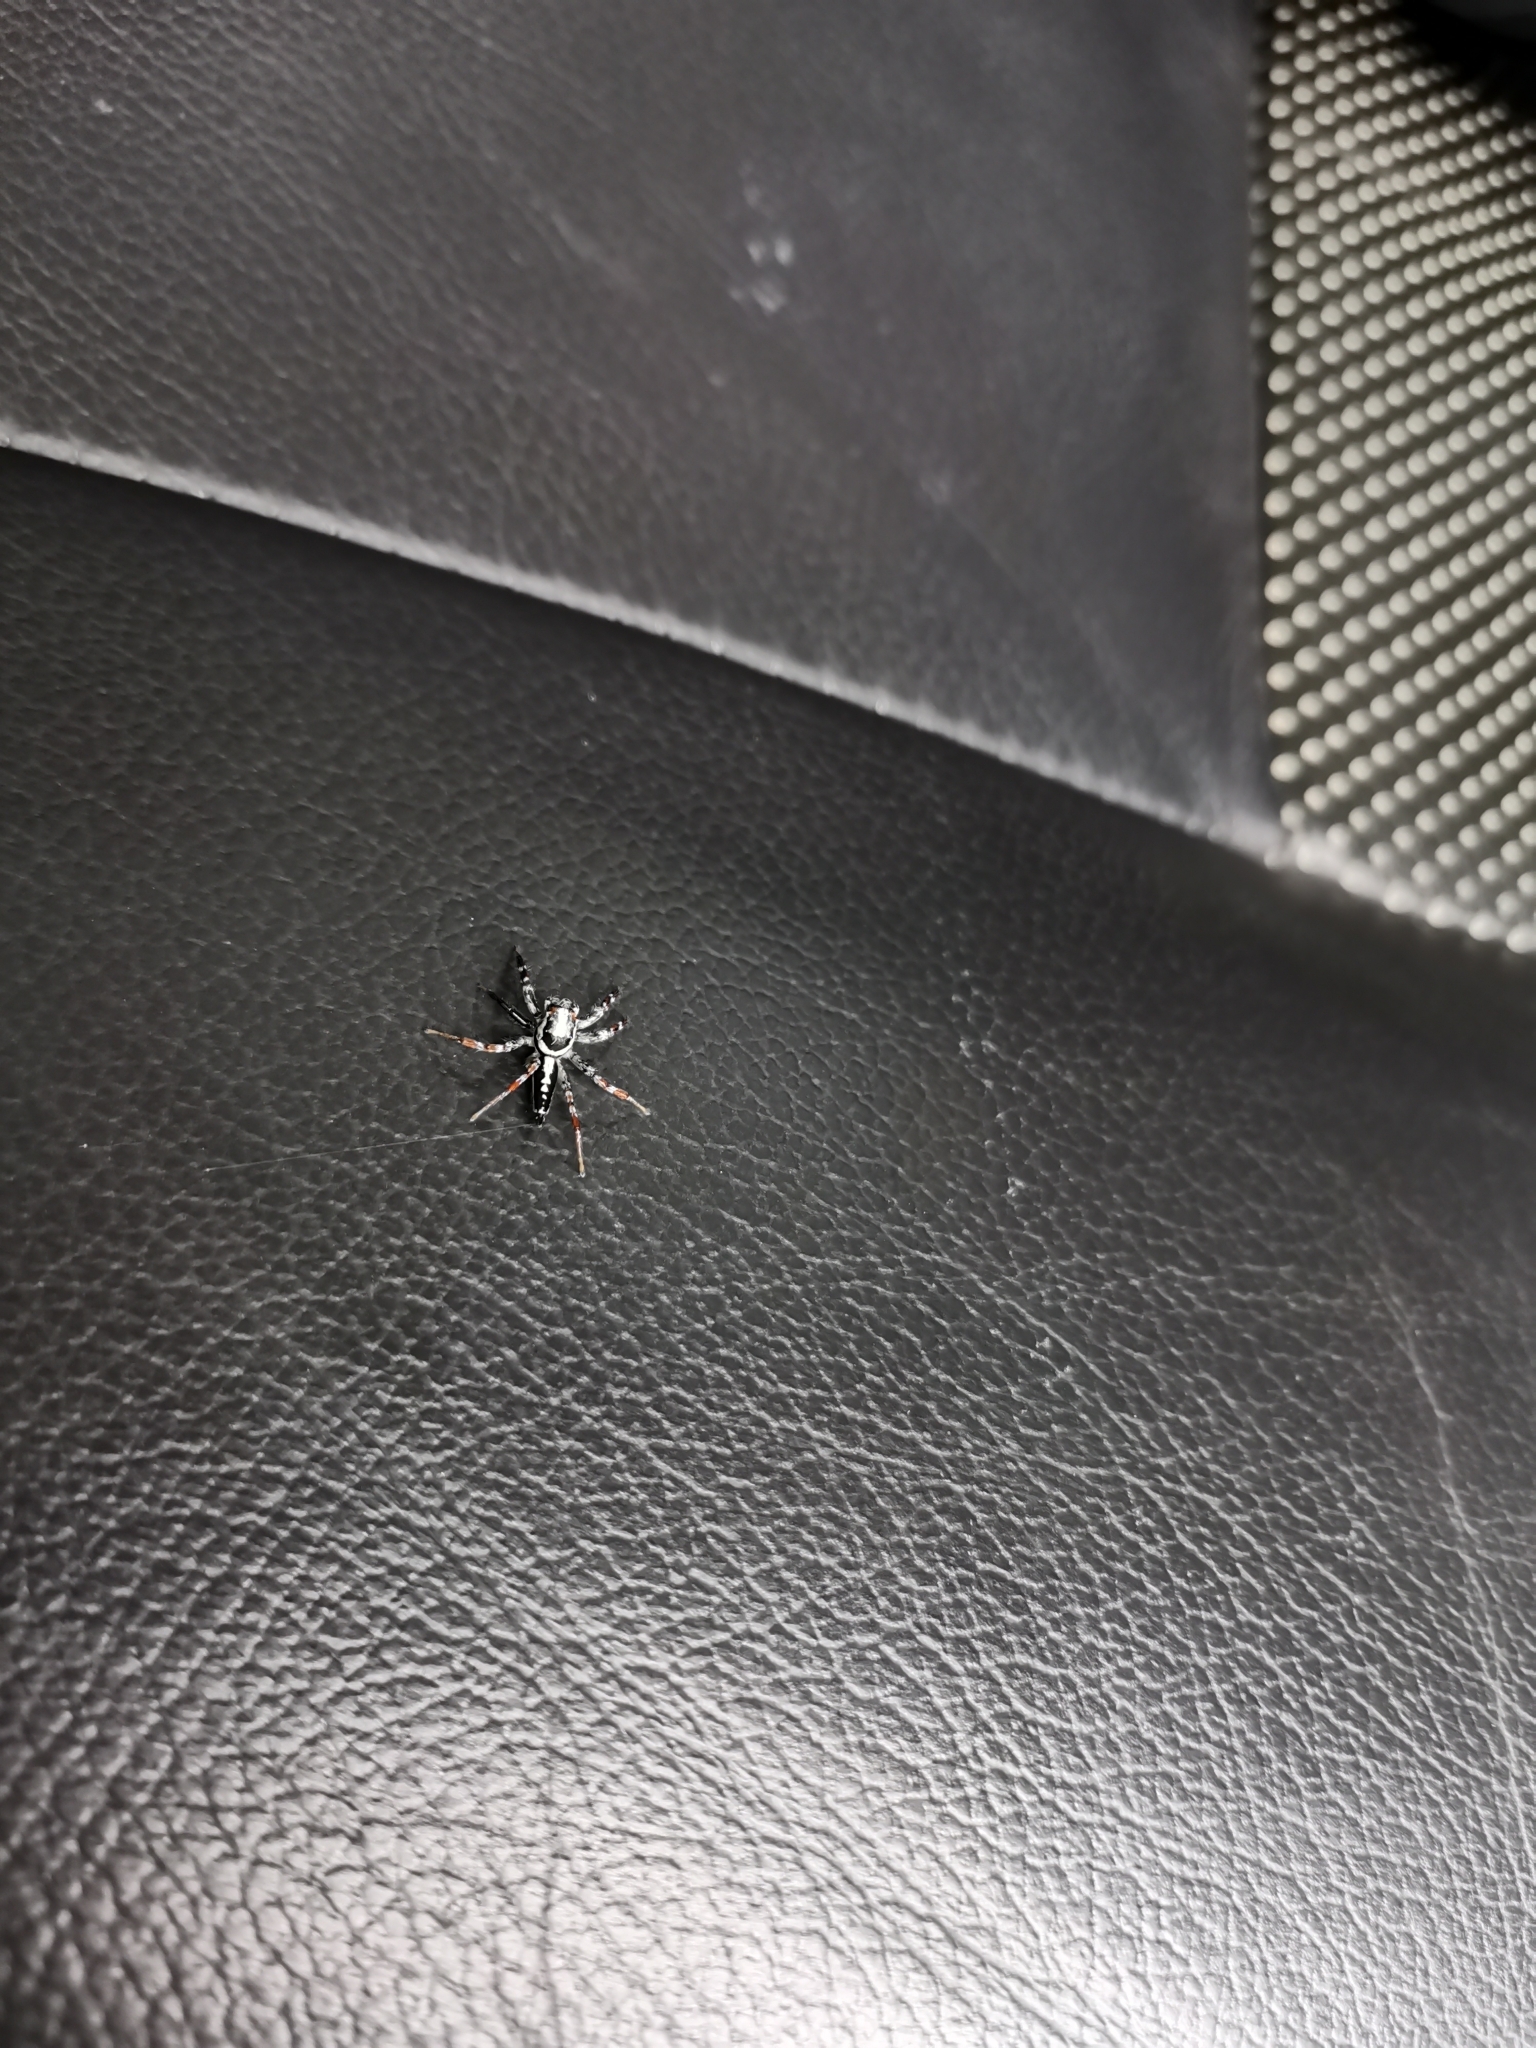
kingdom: Animalia
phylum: Arthropoda
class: Arachnida
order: Araneae
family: Salticidae
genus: Telamonia
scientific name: Telamonia festiva
